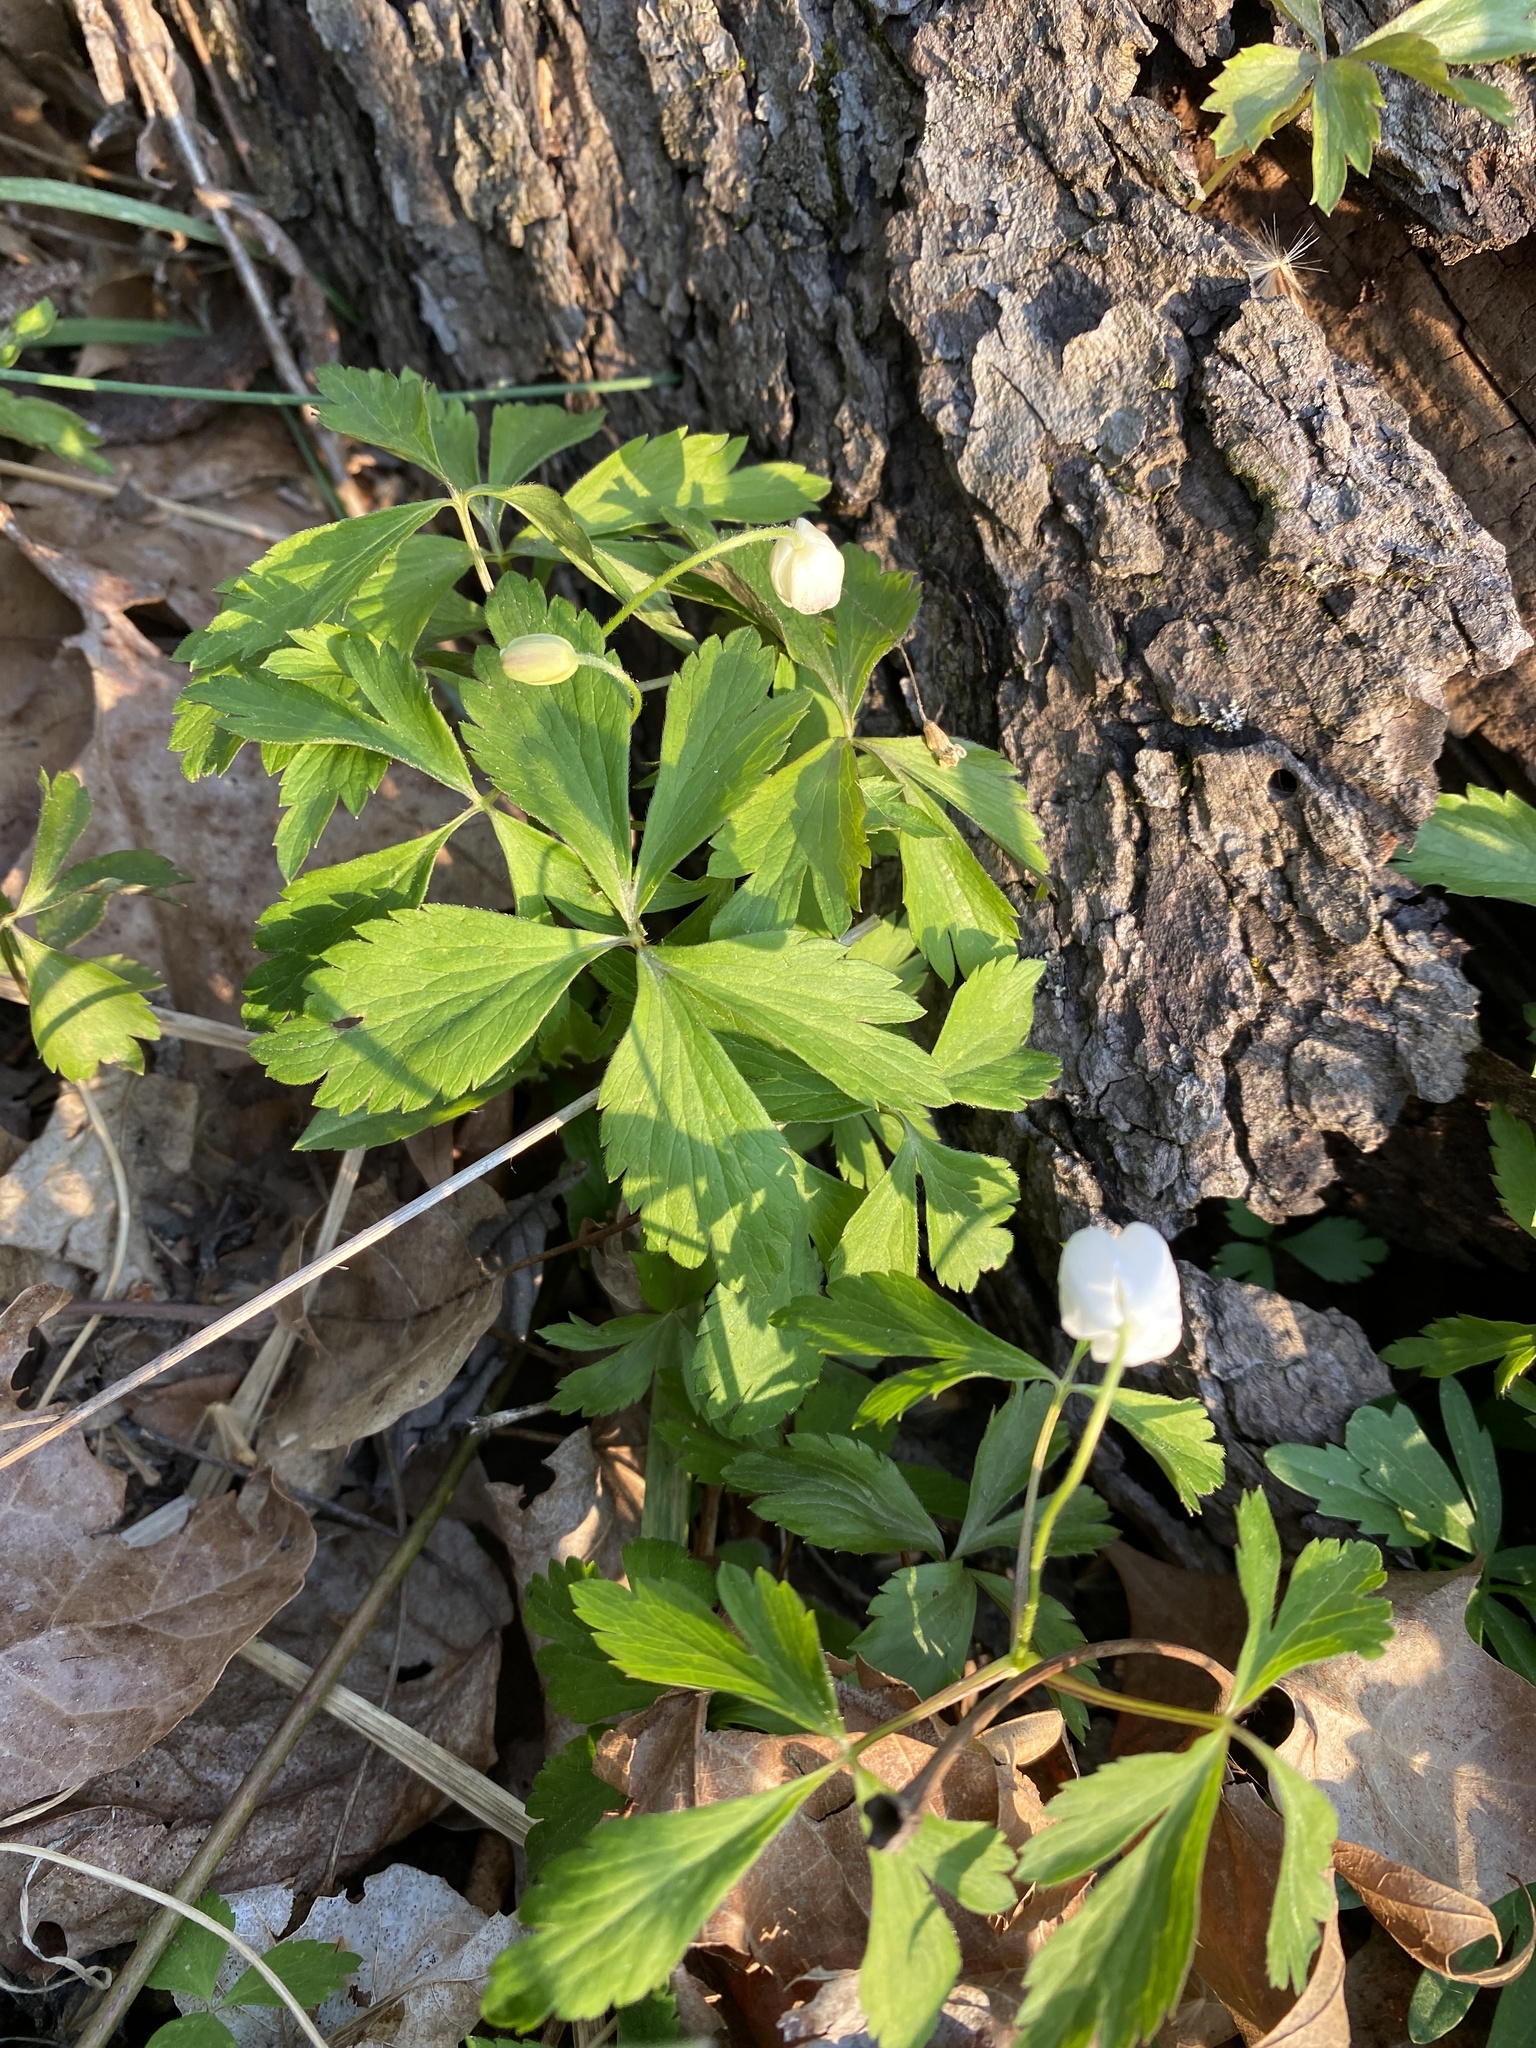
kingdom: Plantae
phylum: Tracheophyta
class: Magnoliopsida
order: Ranunculales
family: Ranunculaceae
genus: Anemone
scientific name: Anemone quinquefolia
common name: Wood anemone
